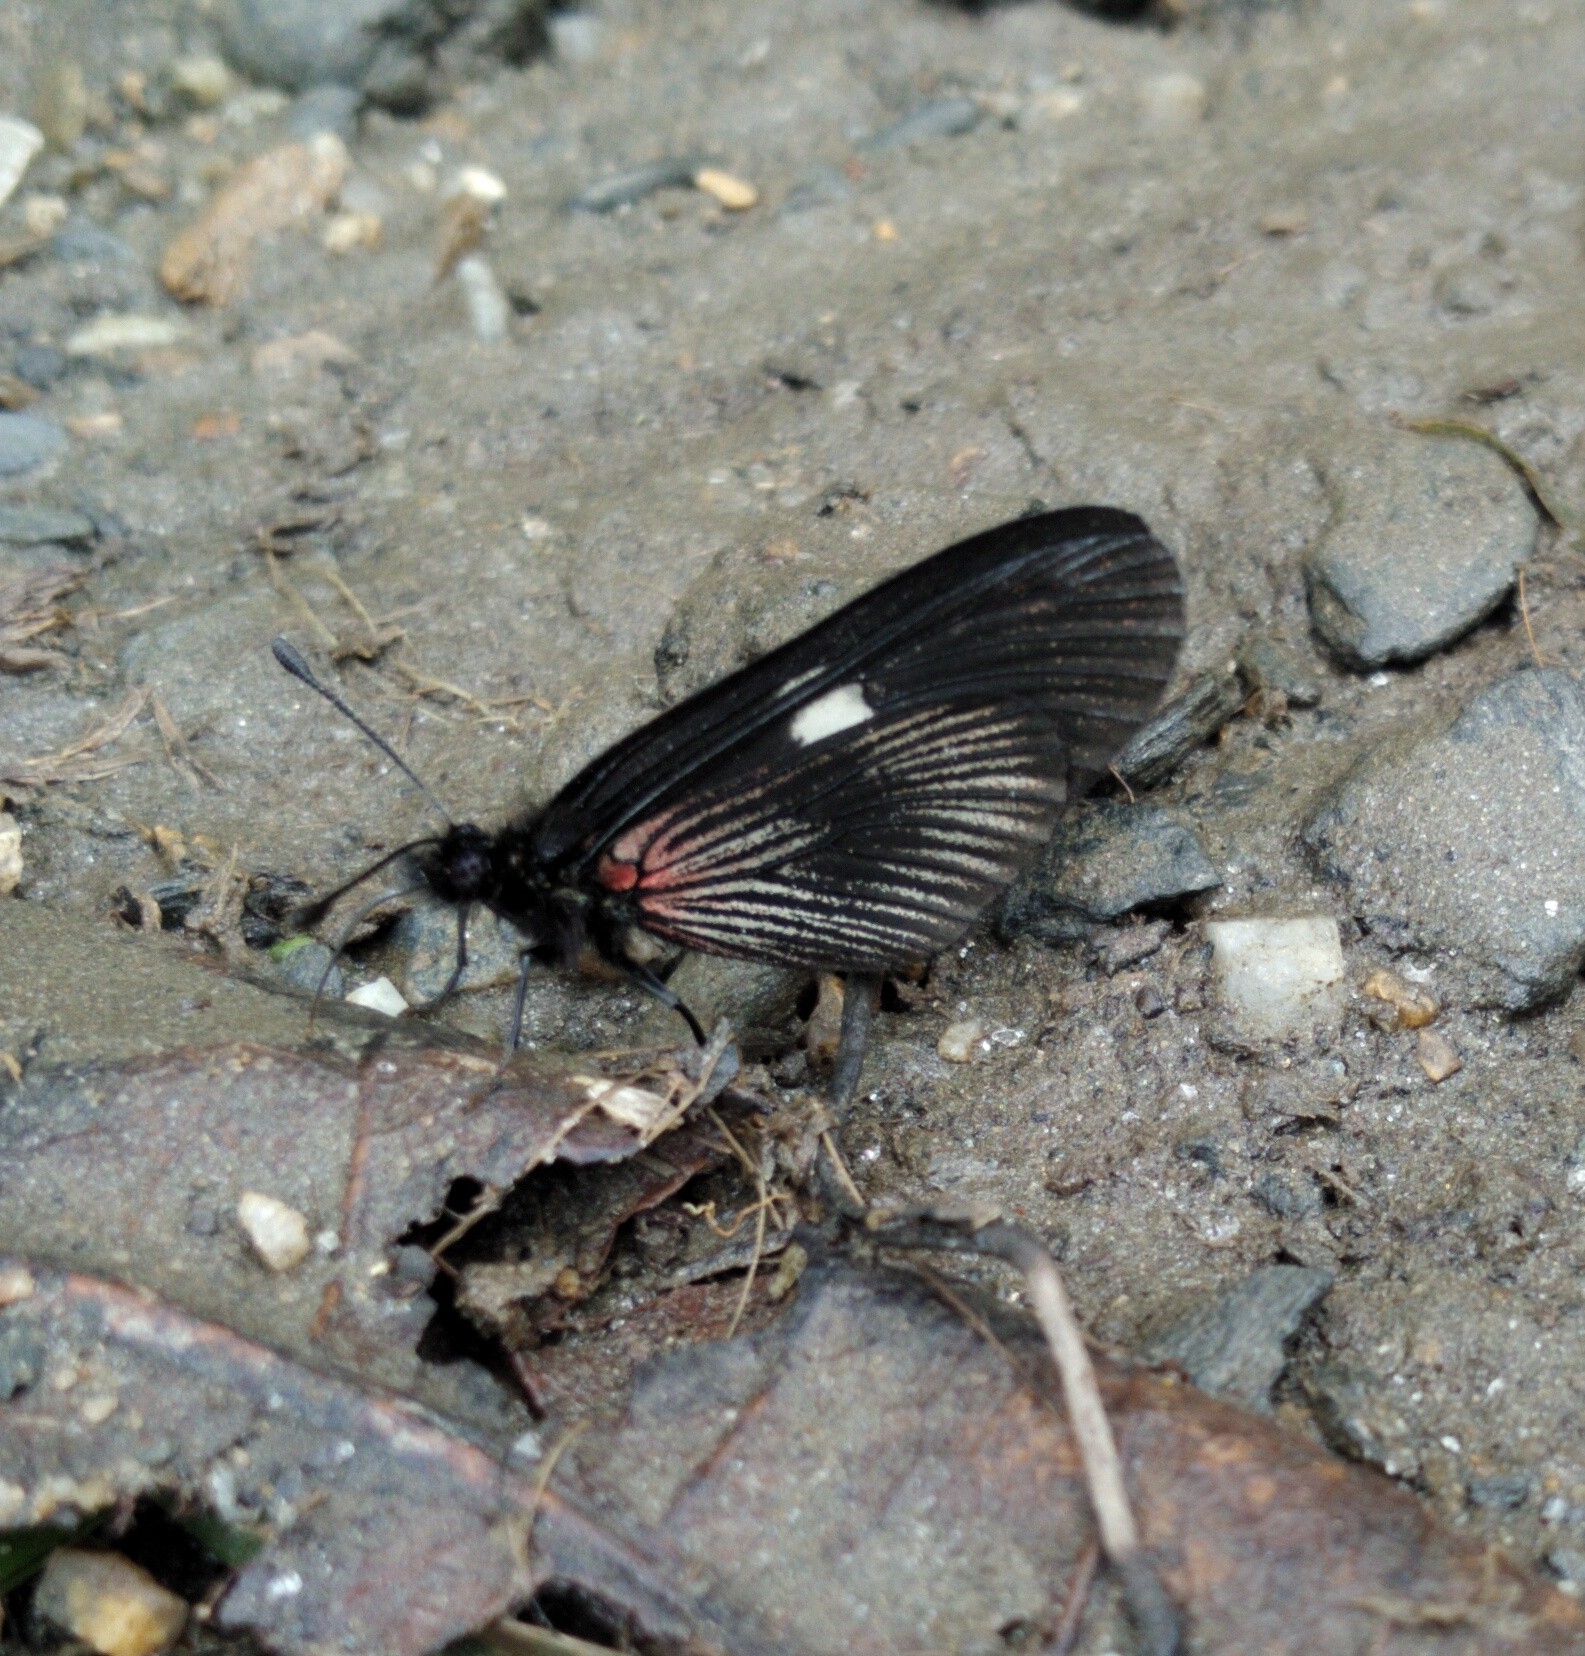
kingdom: Animalia
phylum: Arthropoda
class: Insecta
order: Lepidoptera
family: Nymphalidae
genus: Actinote
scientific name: Actinote
